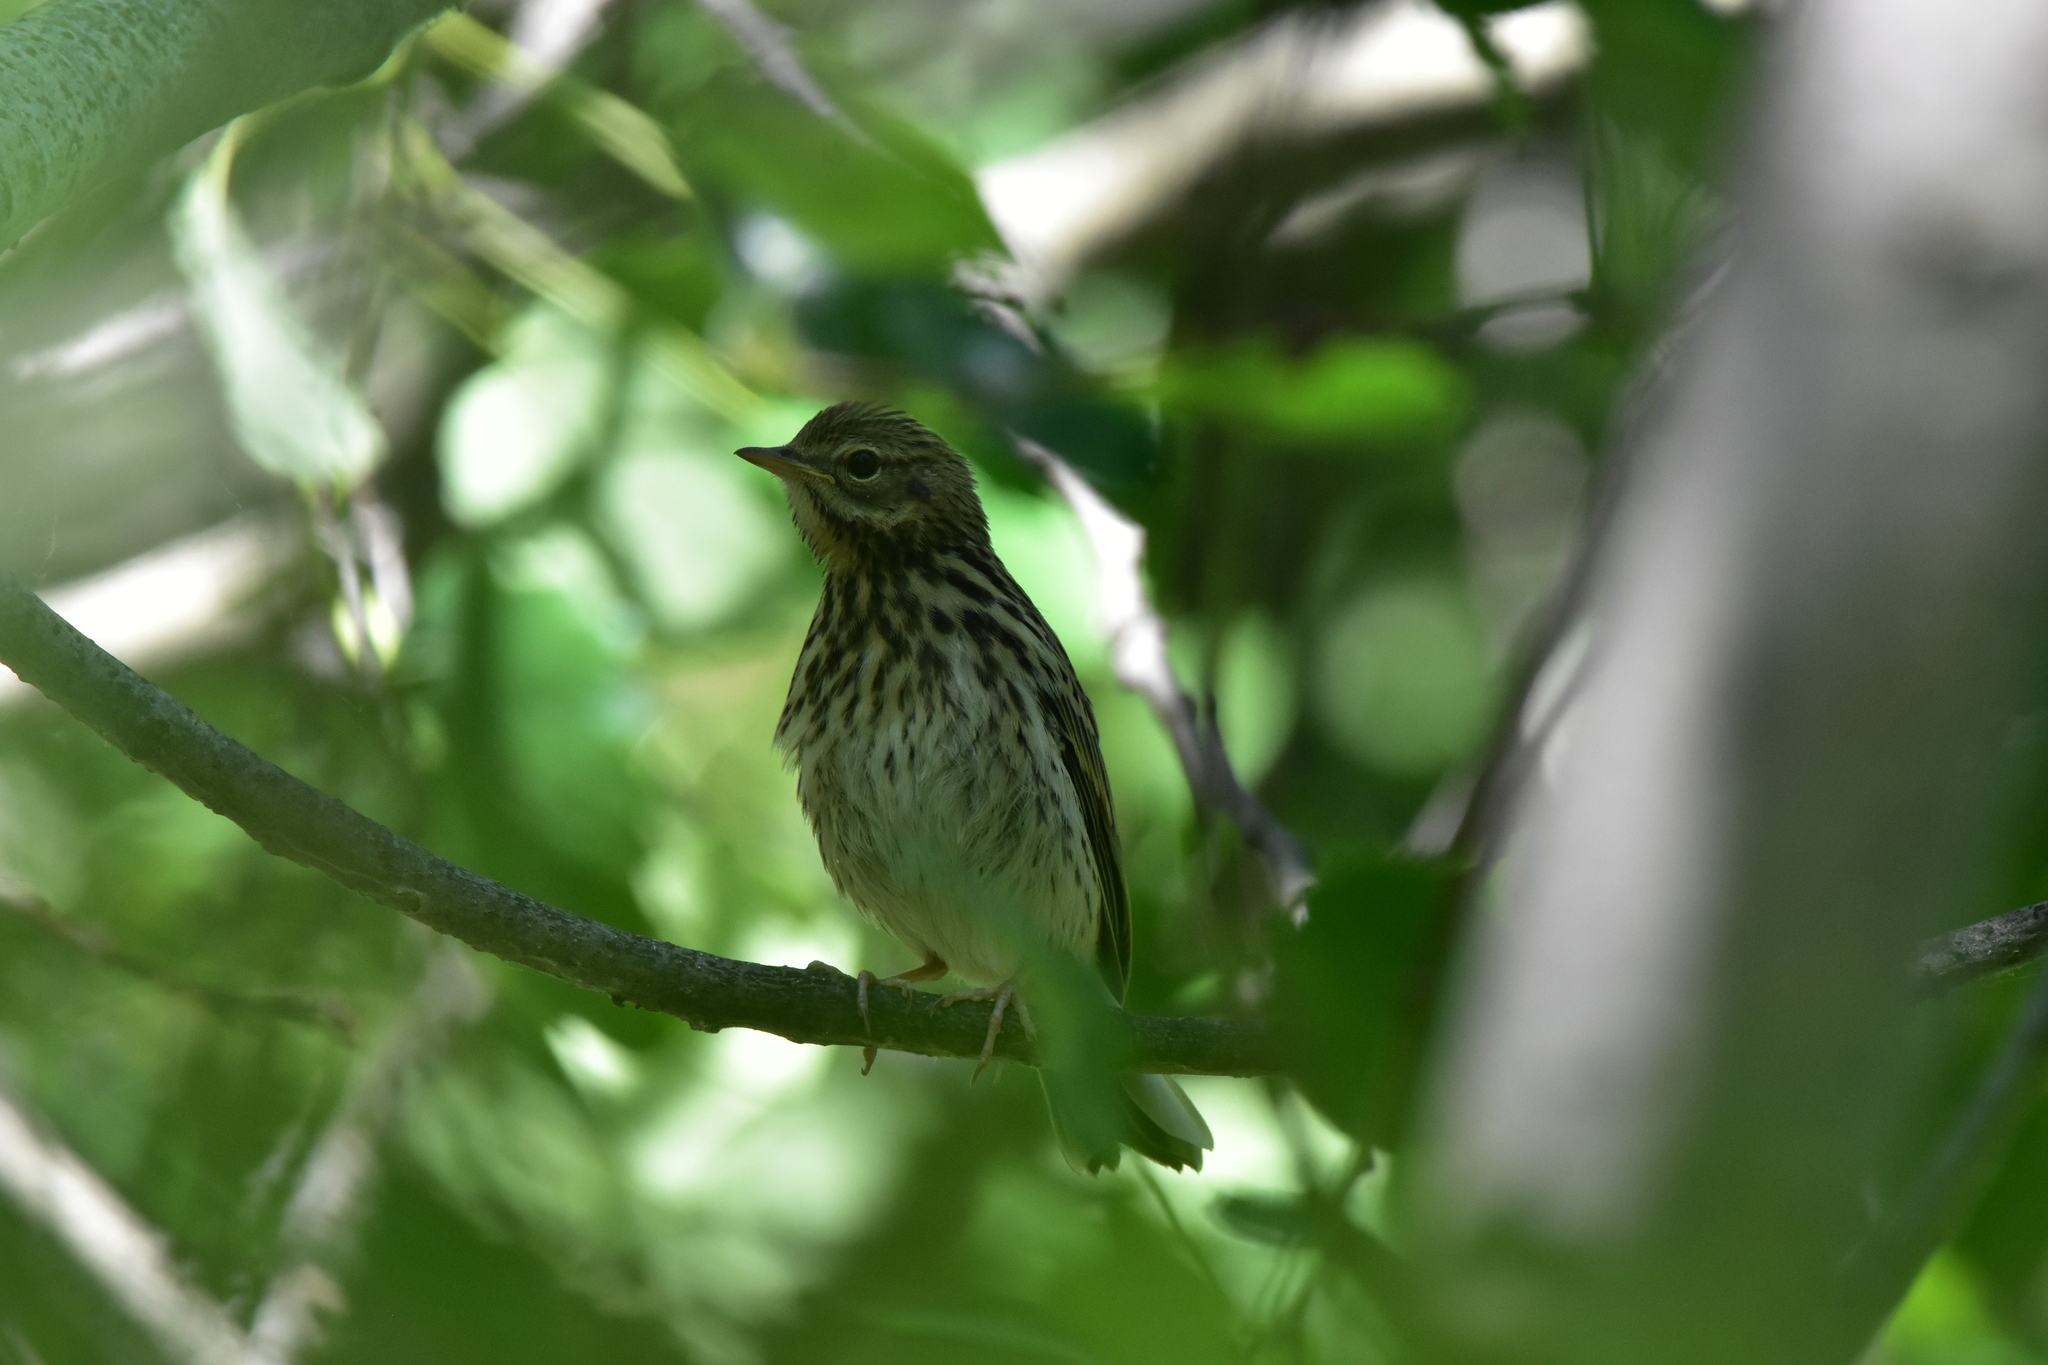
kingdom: Animalia
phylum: Chordata
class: Aves
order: Passeriformes
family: Motacillidae
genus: Anthus
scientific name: Anthus trivialis
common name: Tree pipit
